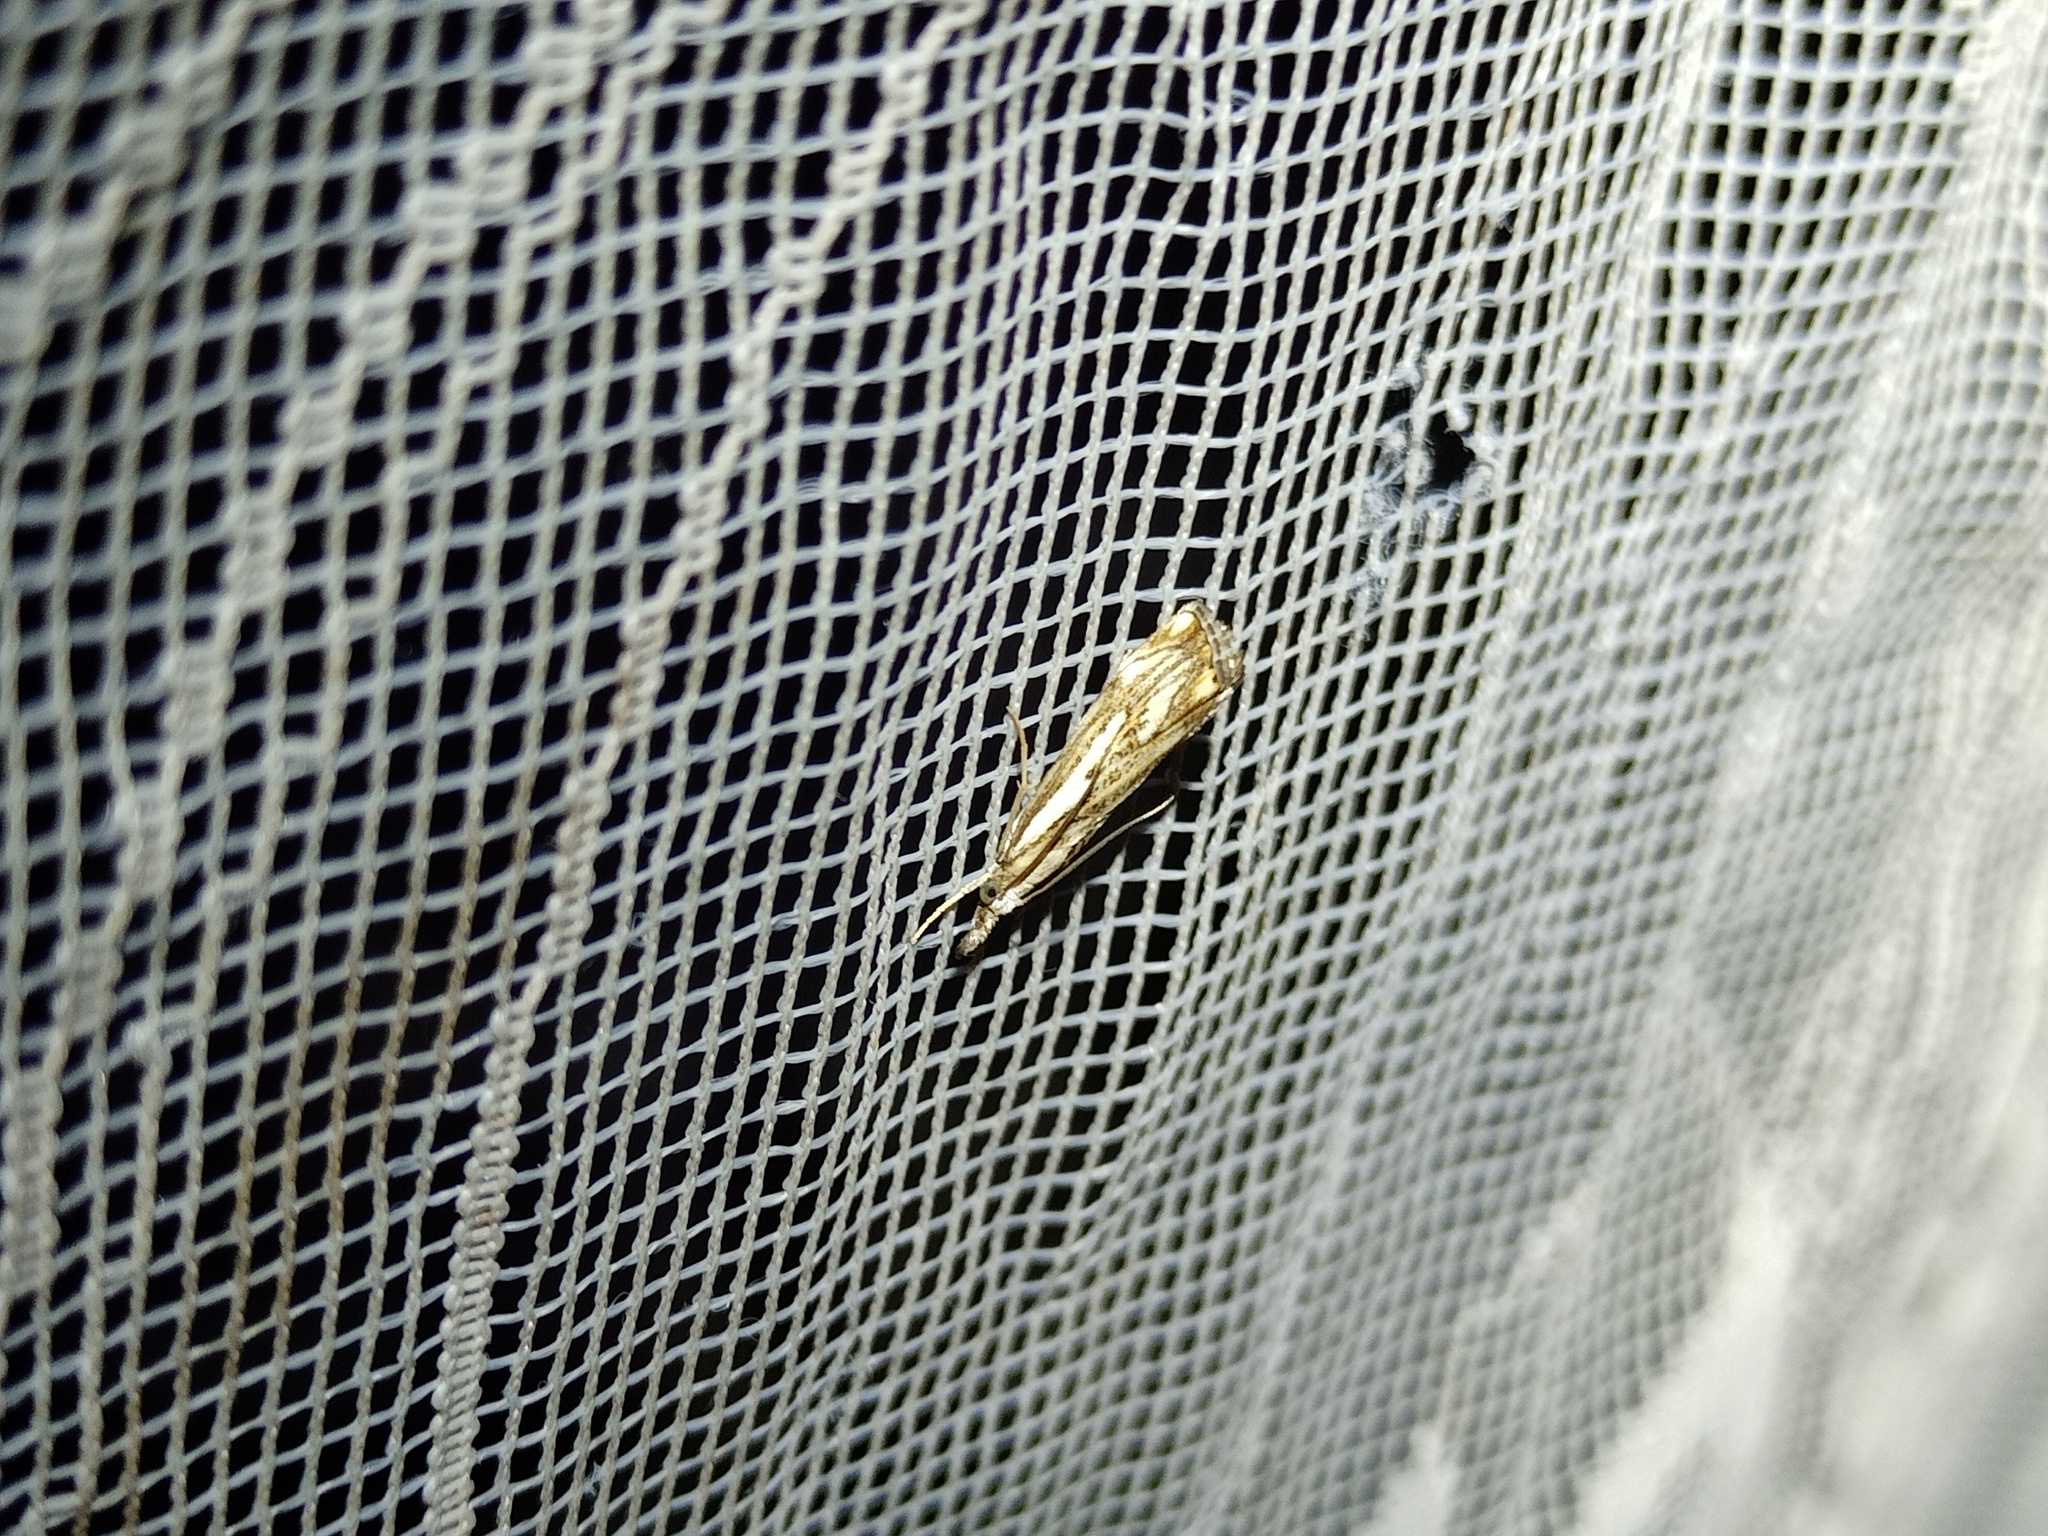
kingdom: Animalia
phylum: Arthropoda
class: Insecta
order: Lepidoptera
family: Crambidae
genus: Catoptria
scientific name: Catoptria falsella
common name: Chequered grass-veneer
